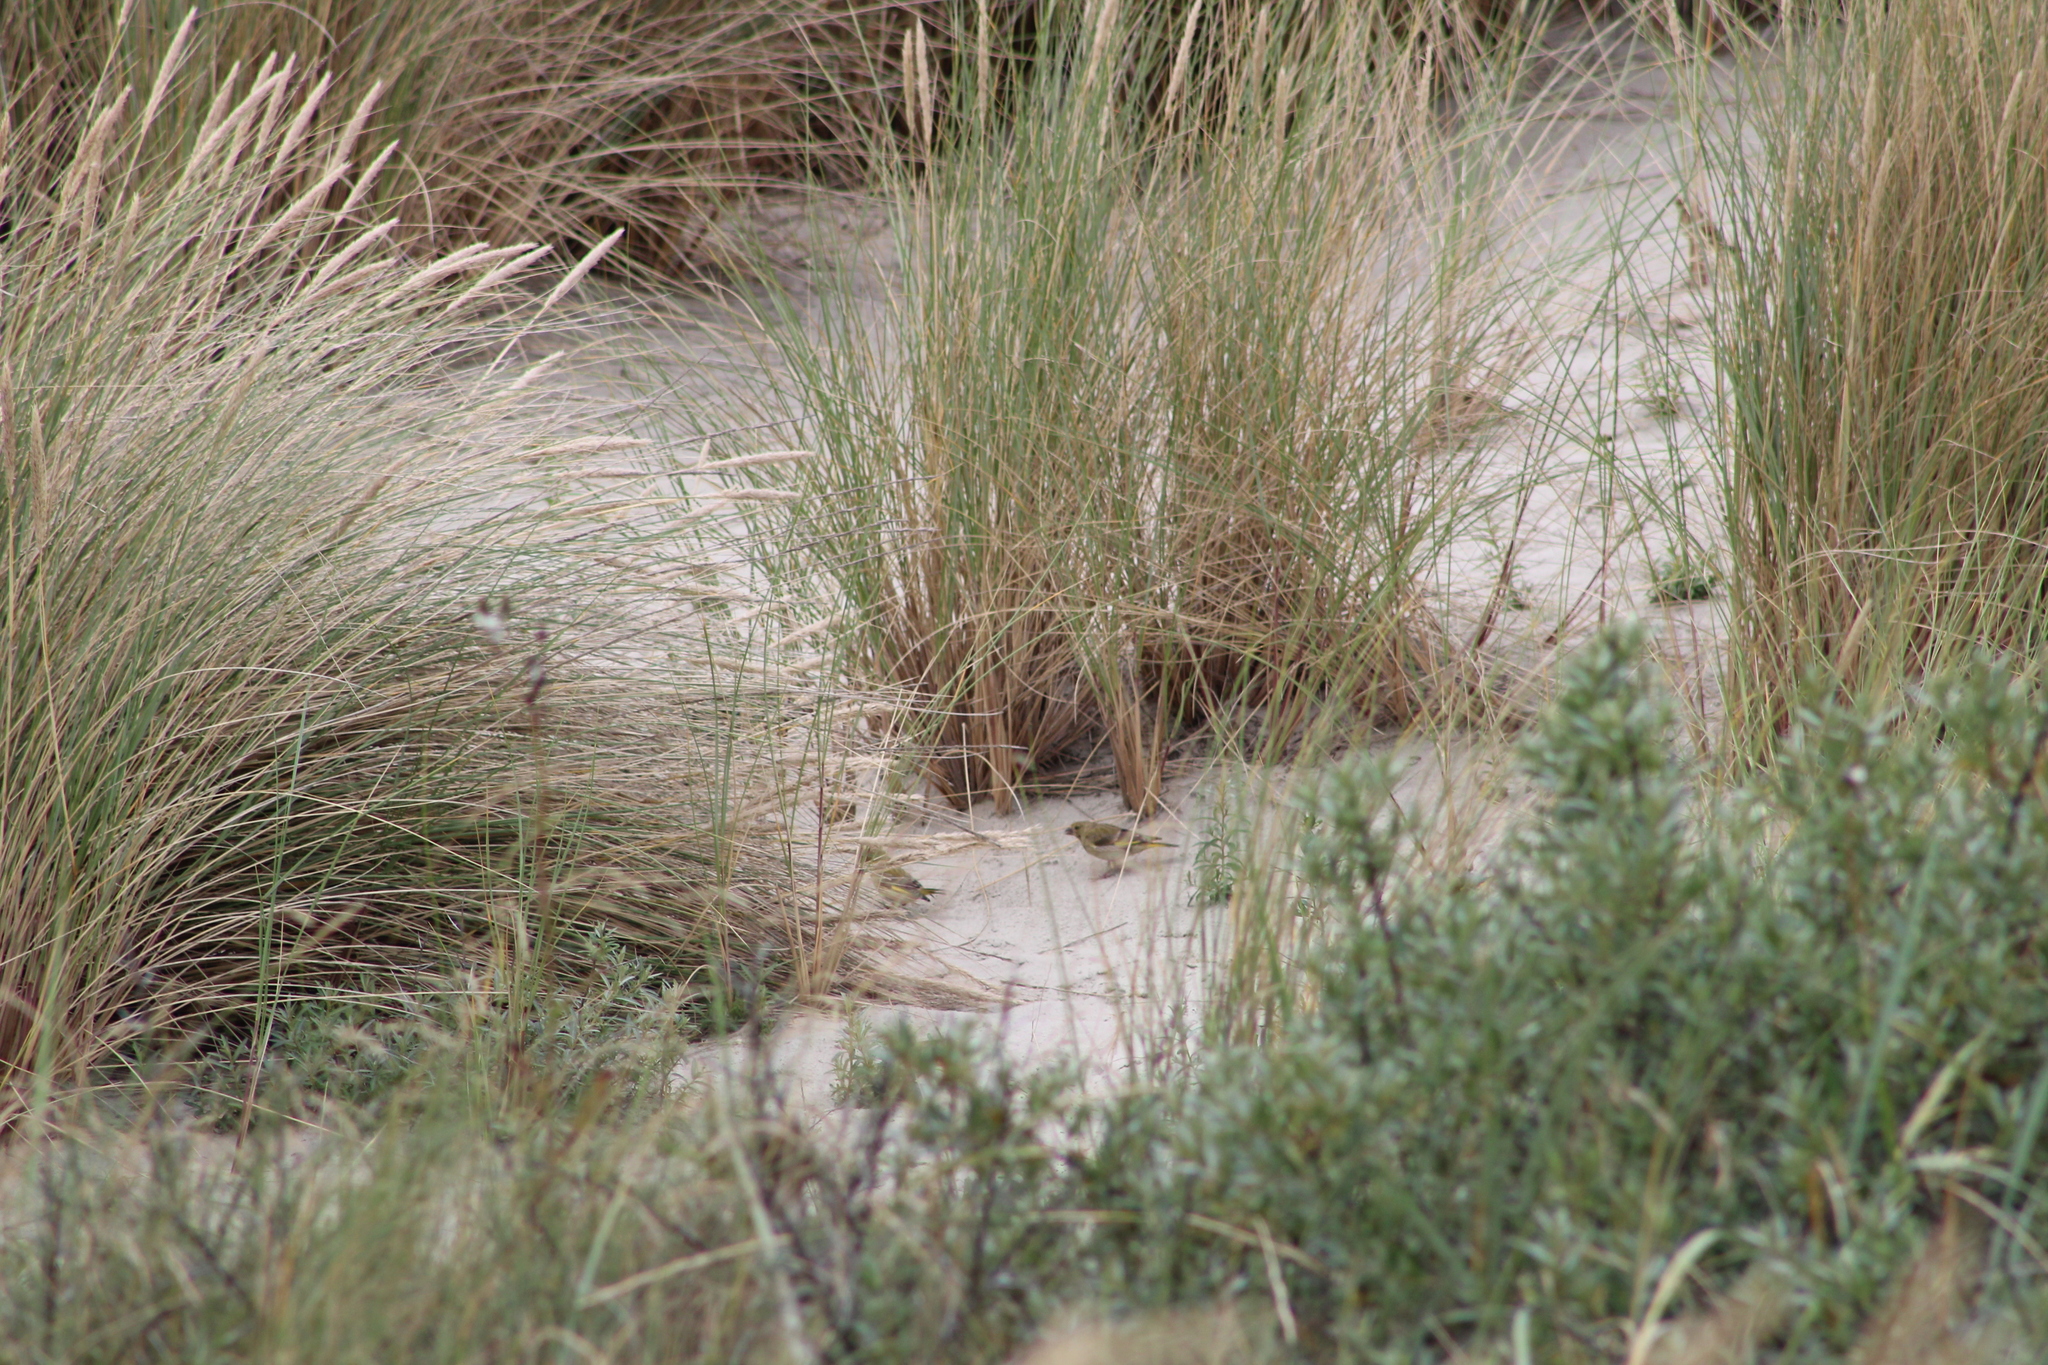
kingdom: Plantae
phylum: Tracheophyta
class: Liliopsida
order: Poales
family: Poaceae
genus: Chloris
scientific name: Chloris chloris
